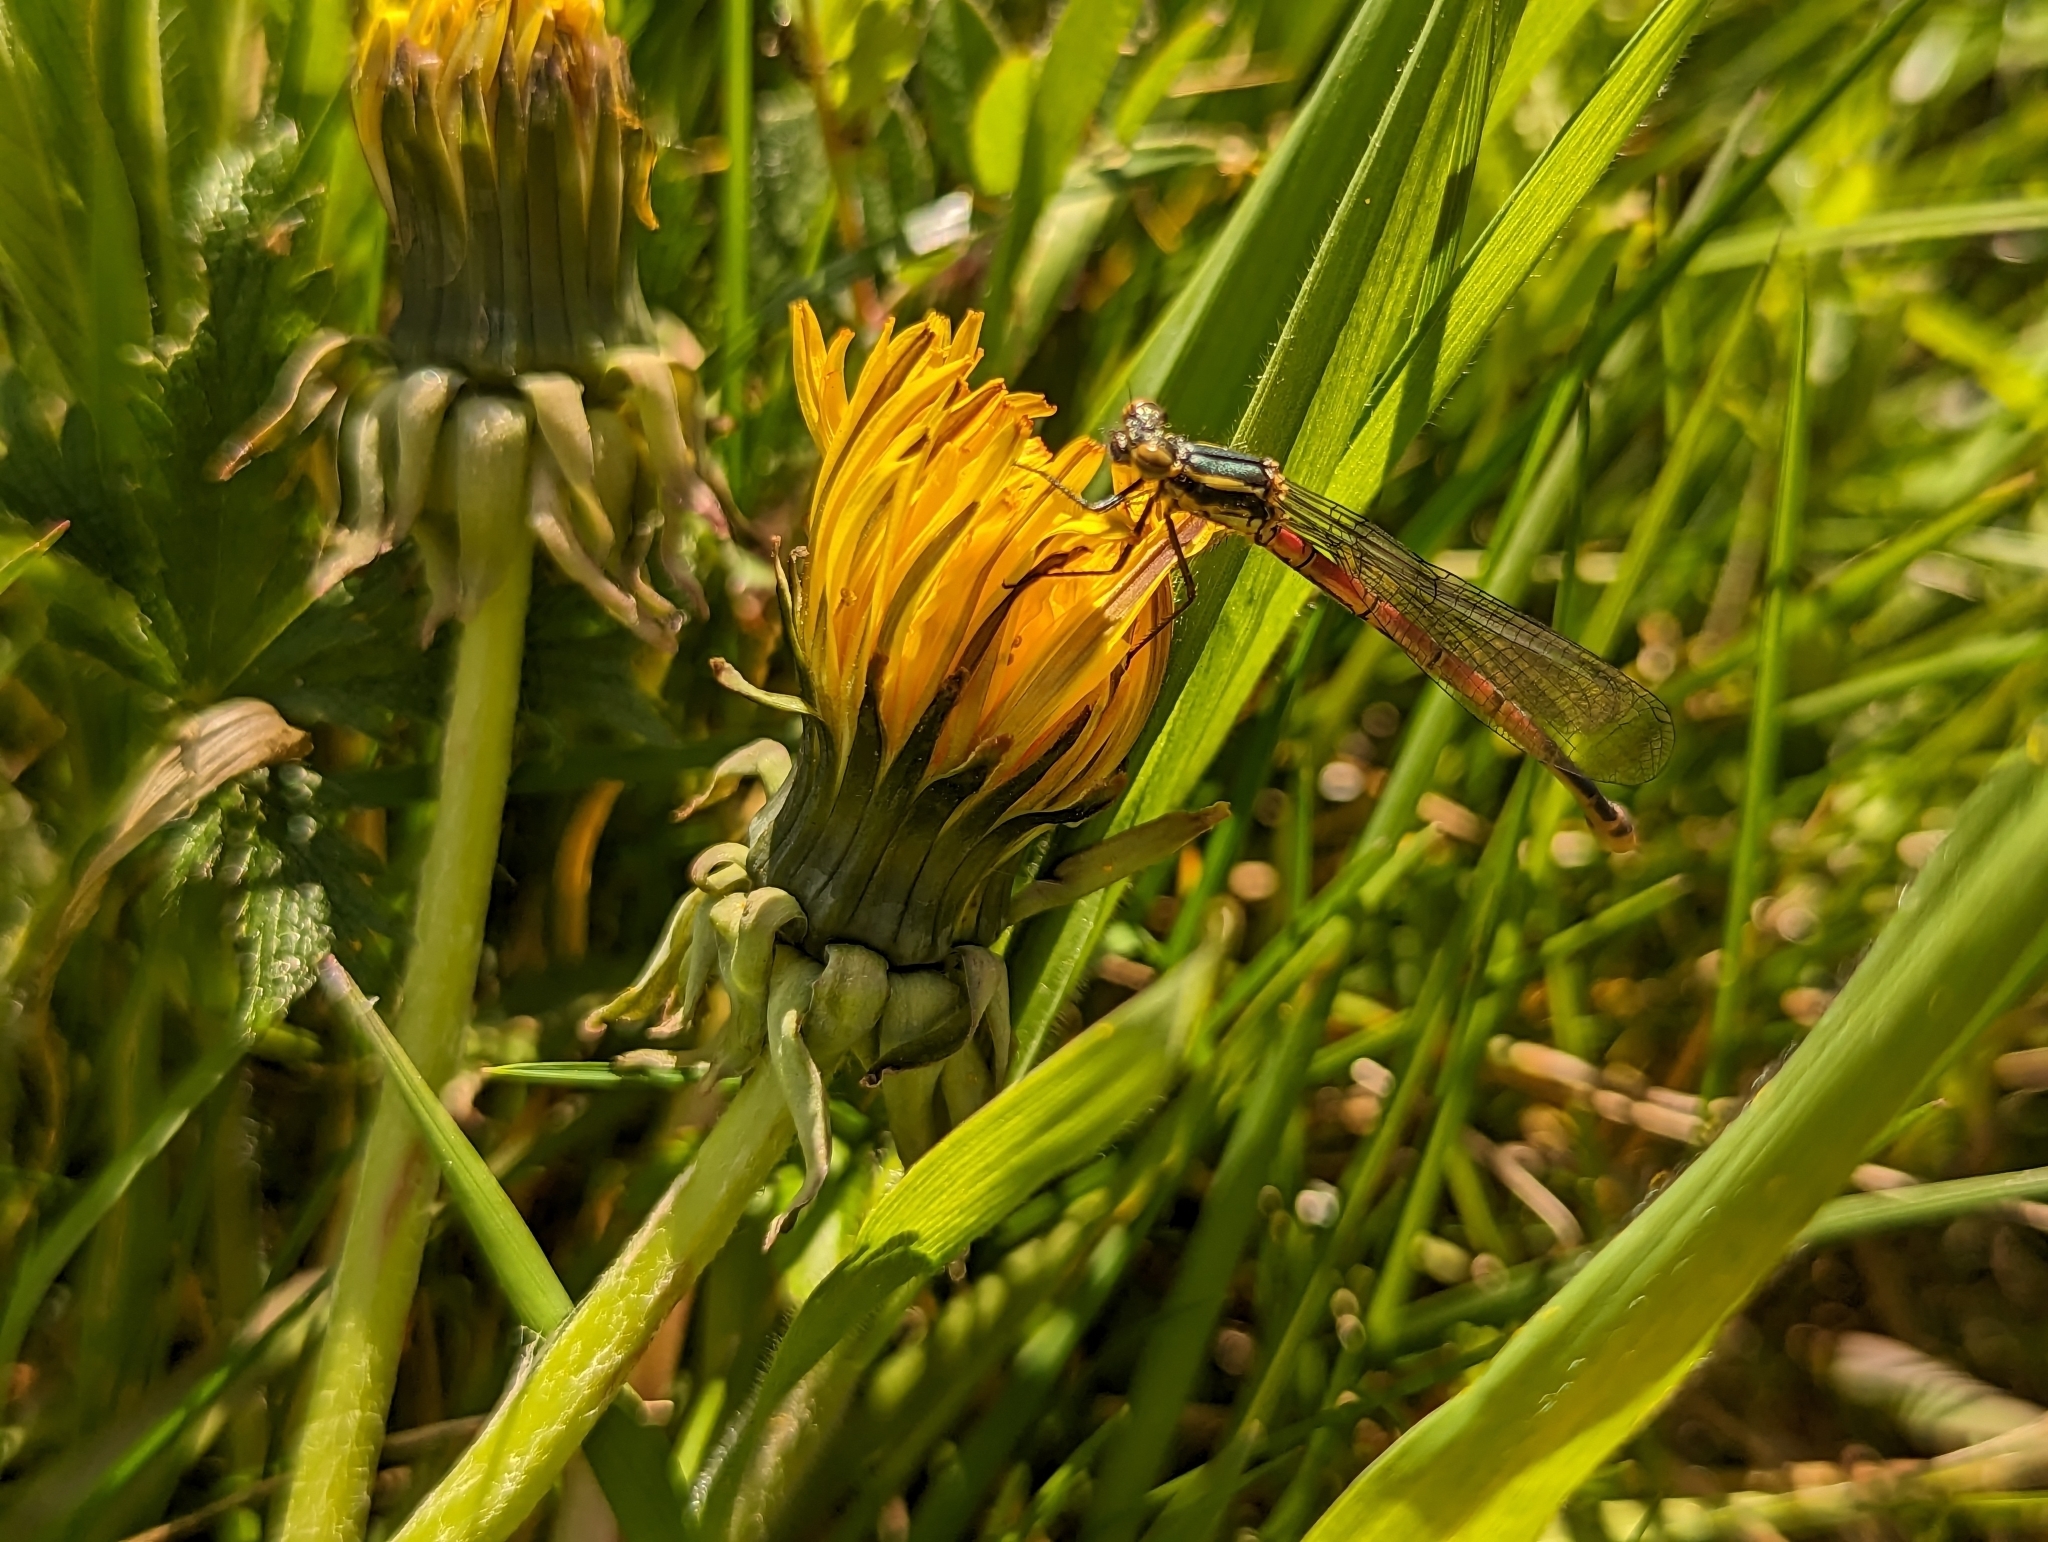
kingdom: Animalia
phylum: Arthropoda
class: Insecta
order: Odonata
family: Coenagrionidae
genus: Pyrrhosoma
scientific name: Pyrrhosoma nymphula
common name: Large red damsel
